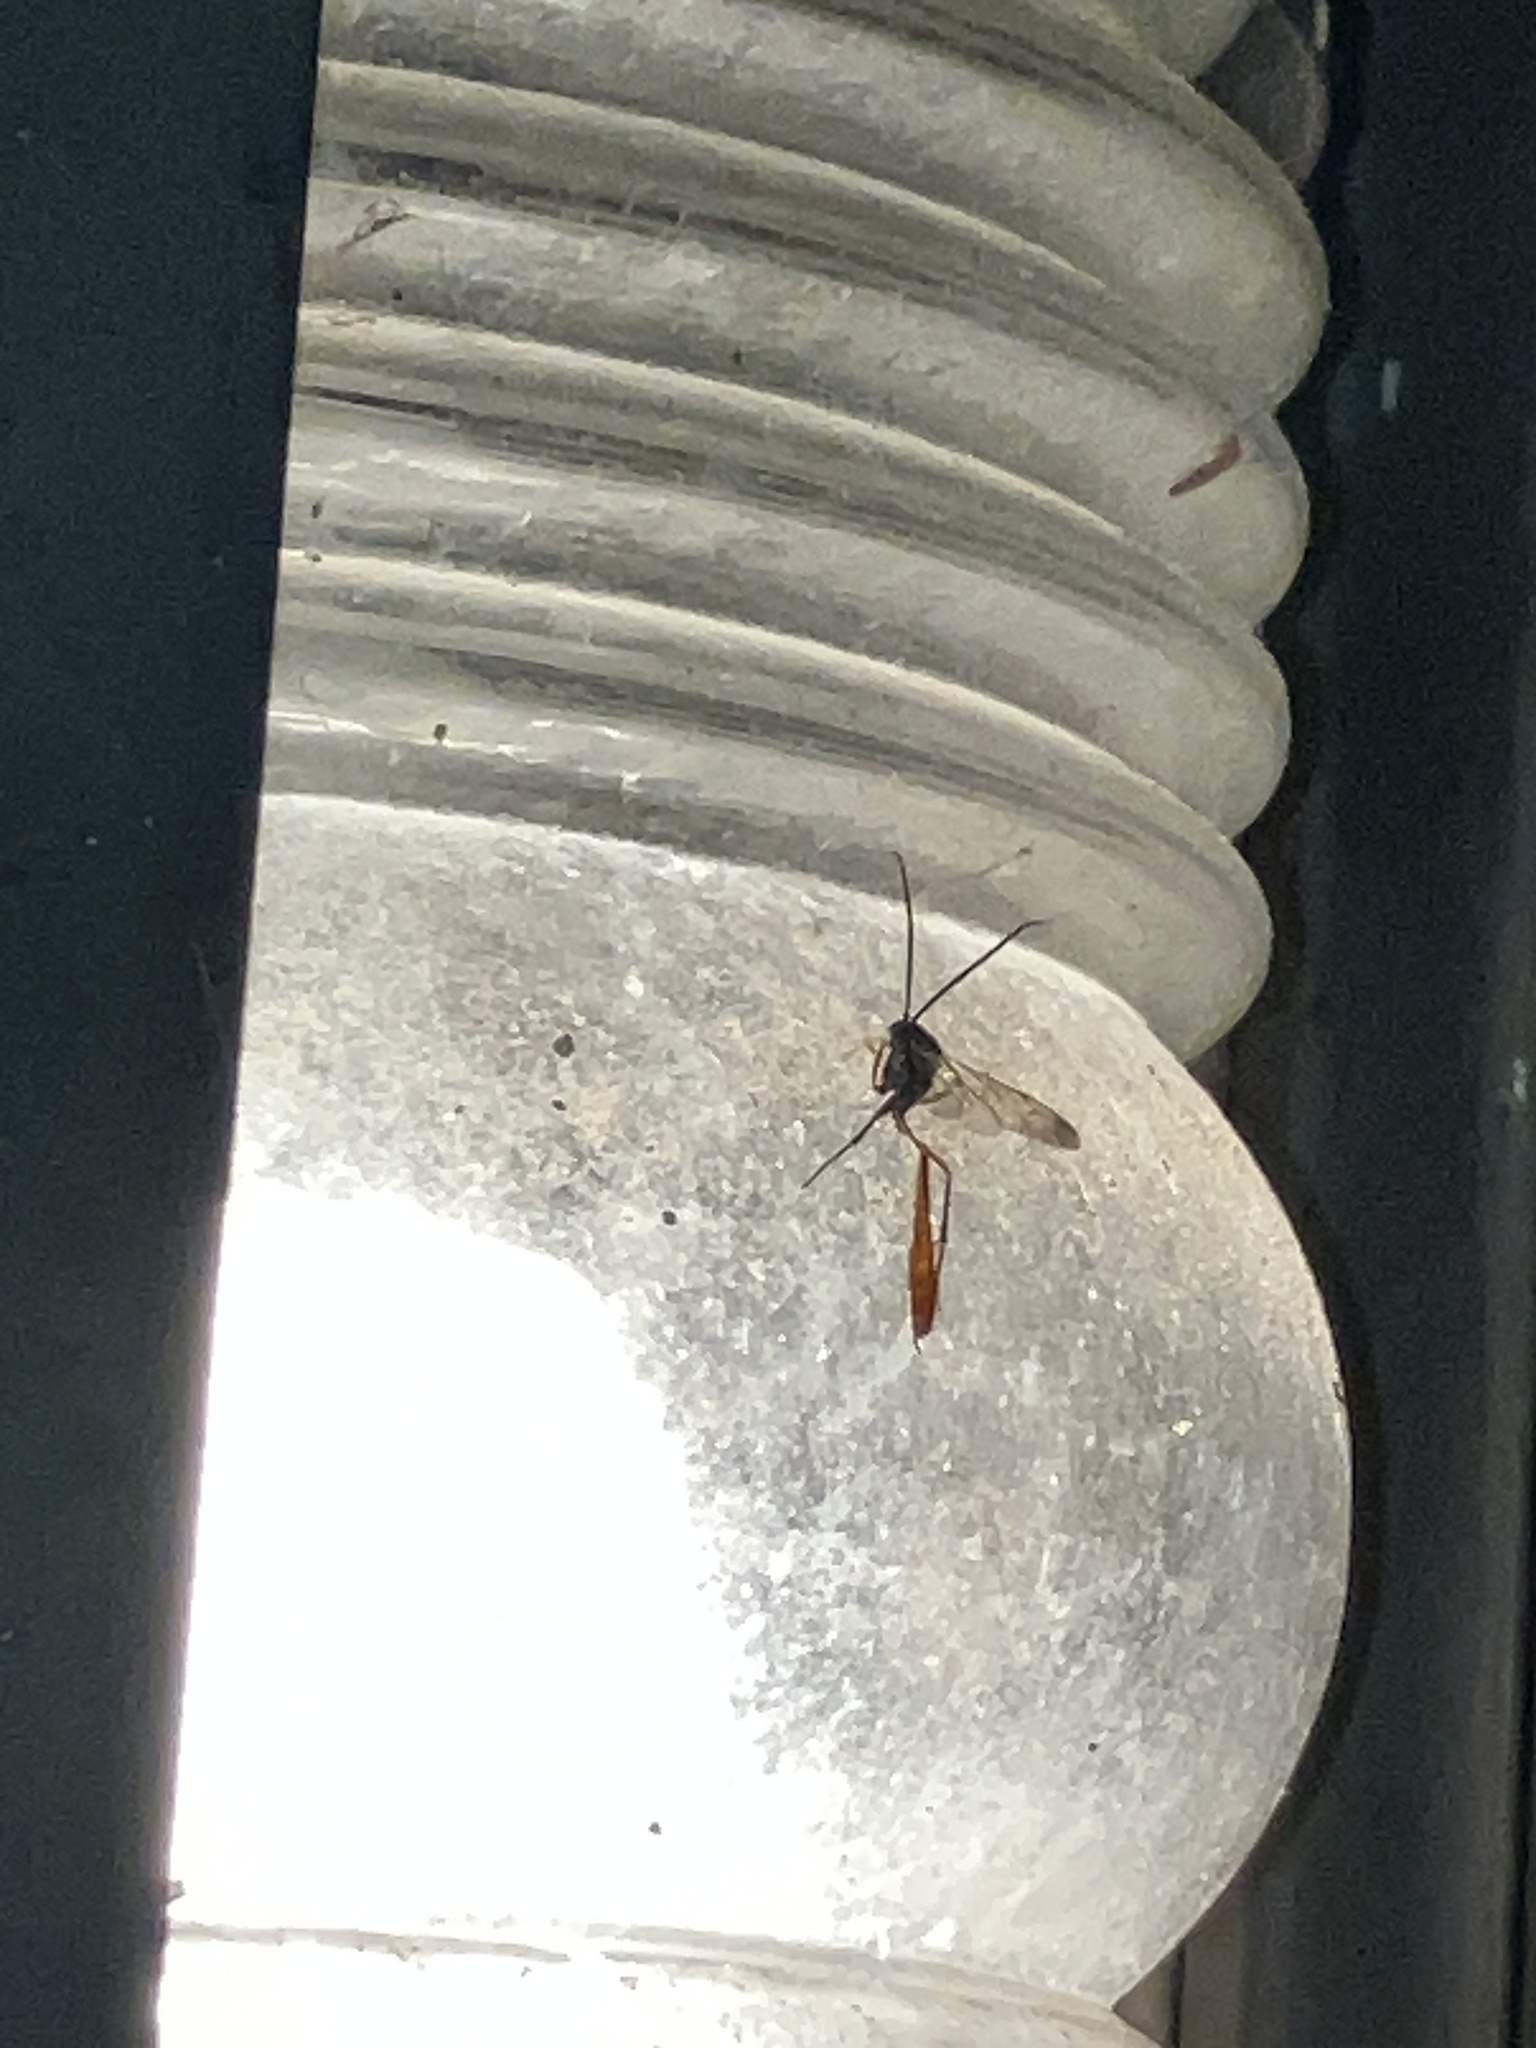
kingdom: Animalia
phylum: Arthropoda
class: Insecta
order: Hymenoptera
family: Ichneumonidae
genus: Campopleginae
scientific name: Campopleginae
